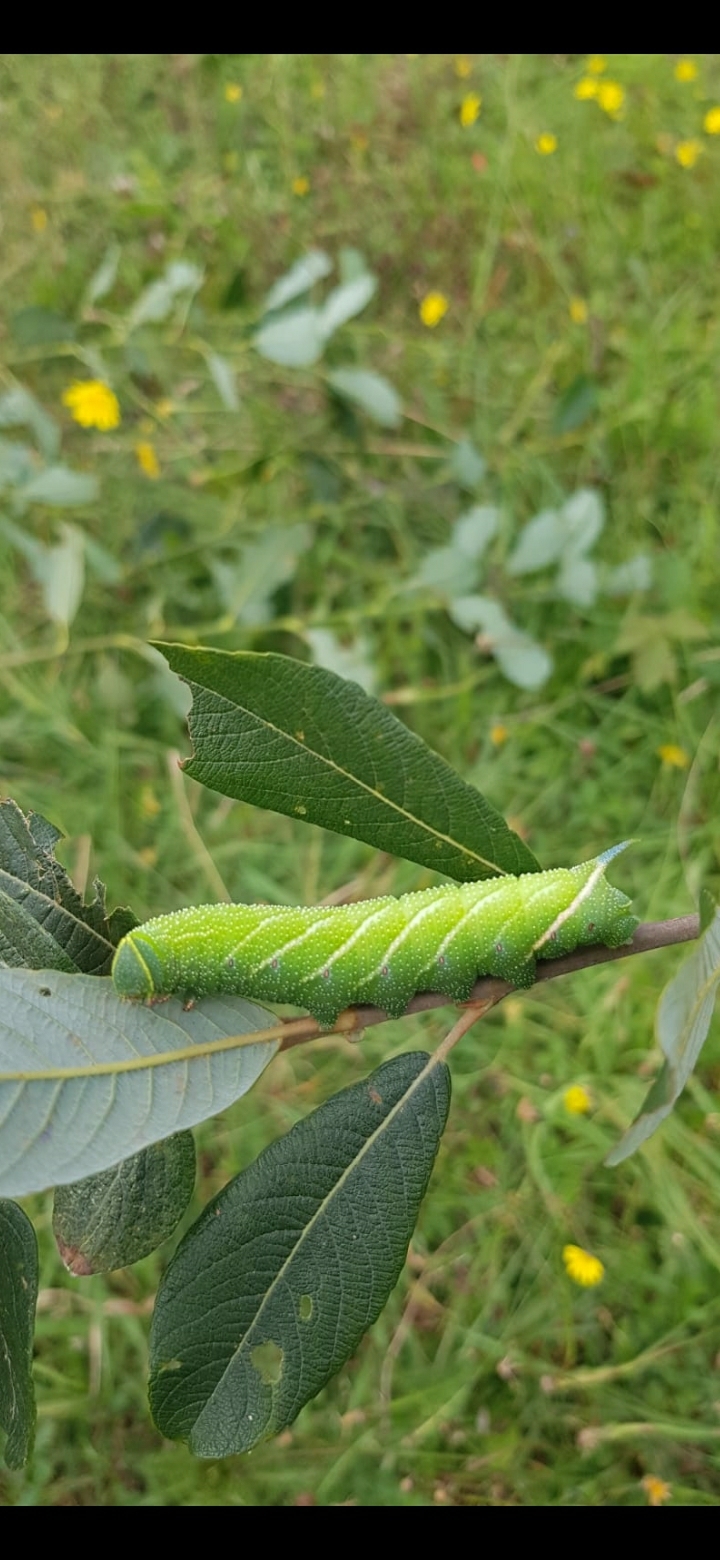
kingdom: Animalia
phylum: Arthropoda
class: Insecta
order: Lepidoptera
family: Sphingidae
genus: Smerinthus
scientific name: Smerinthus ocellata
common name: Eyed hawk-moth
